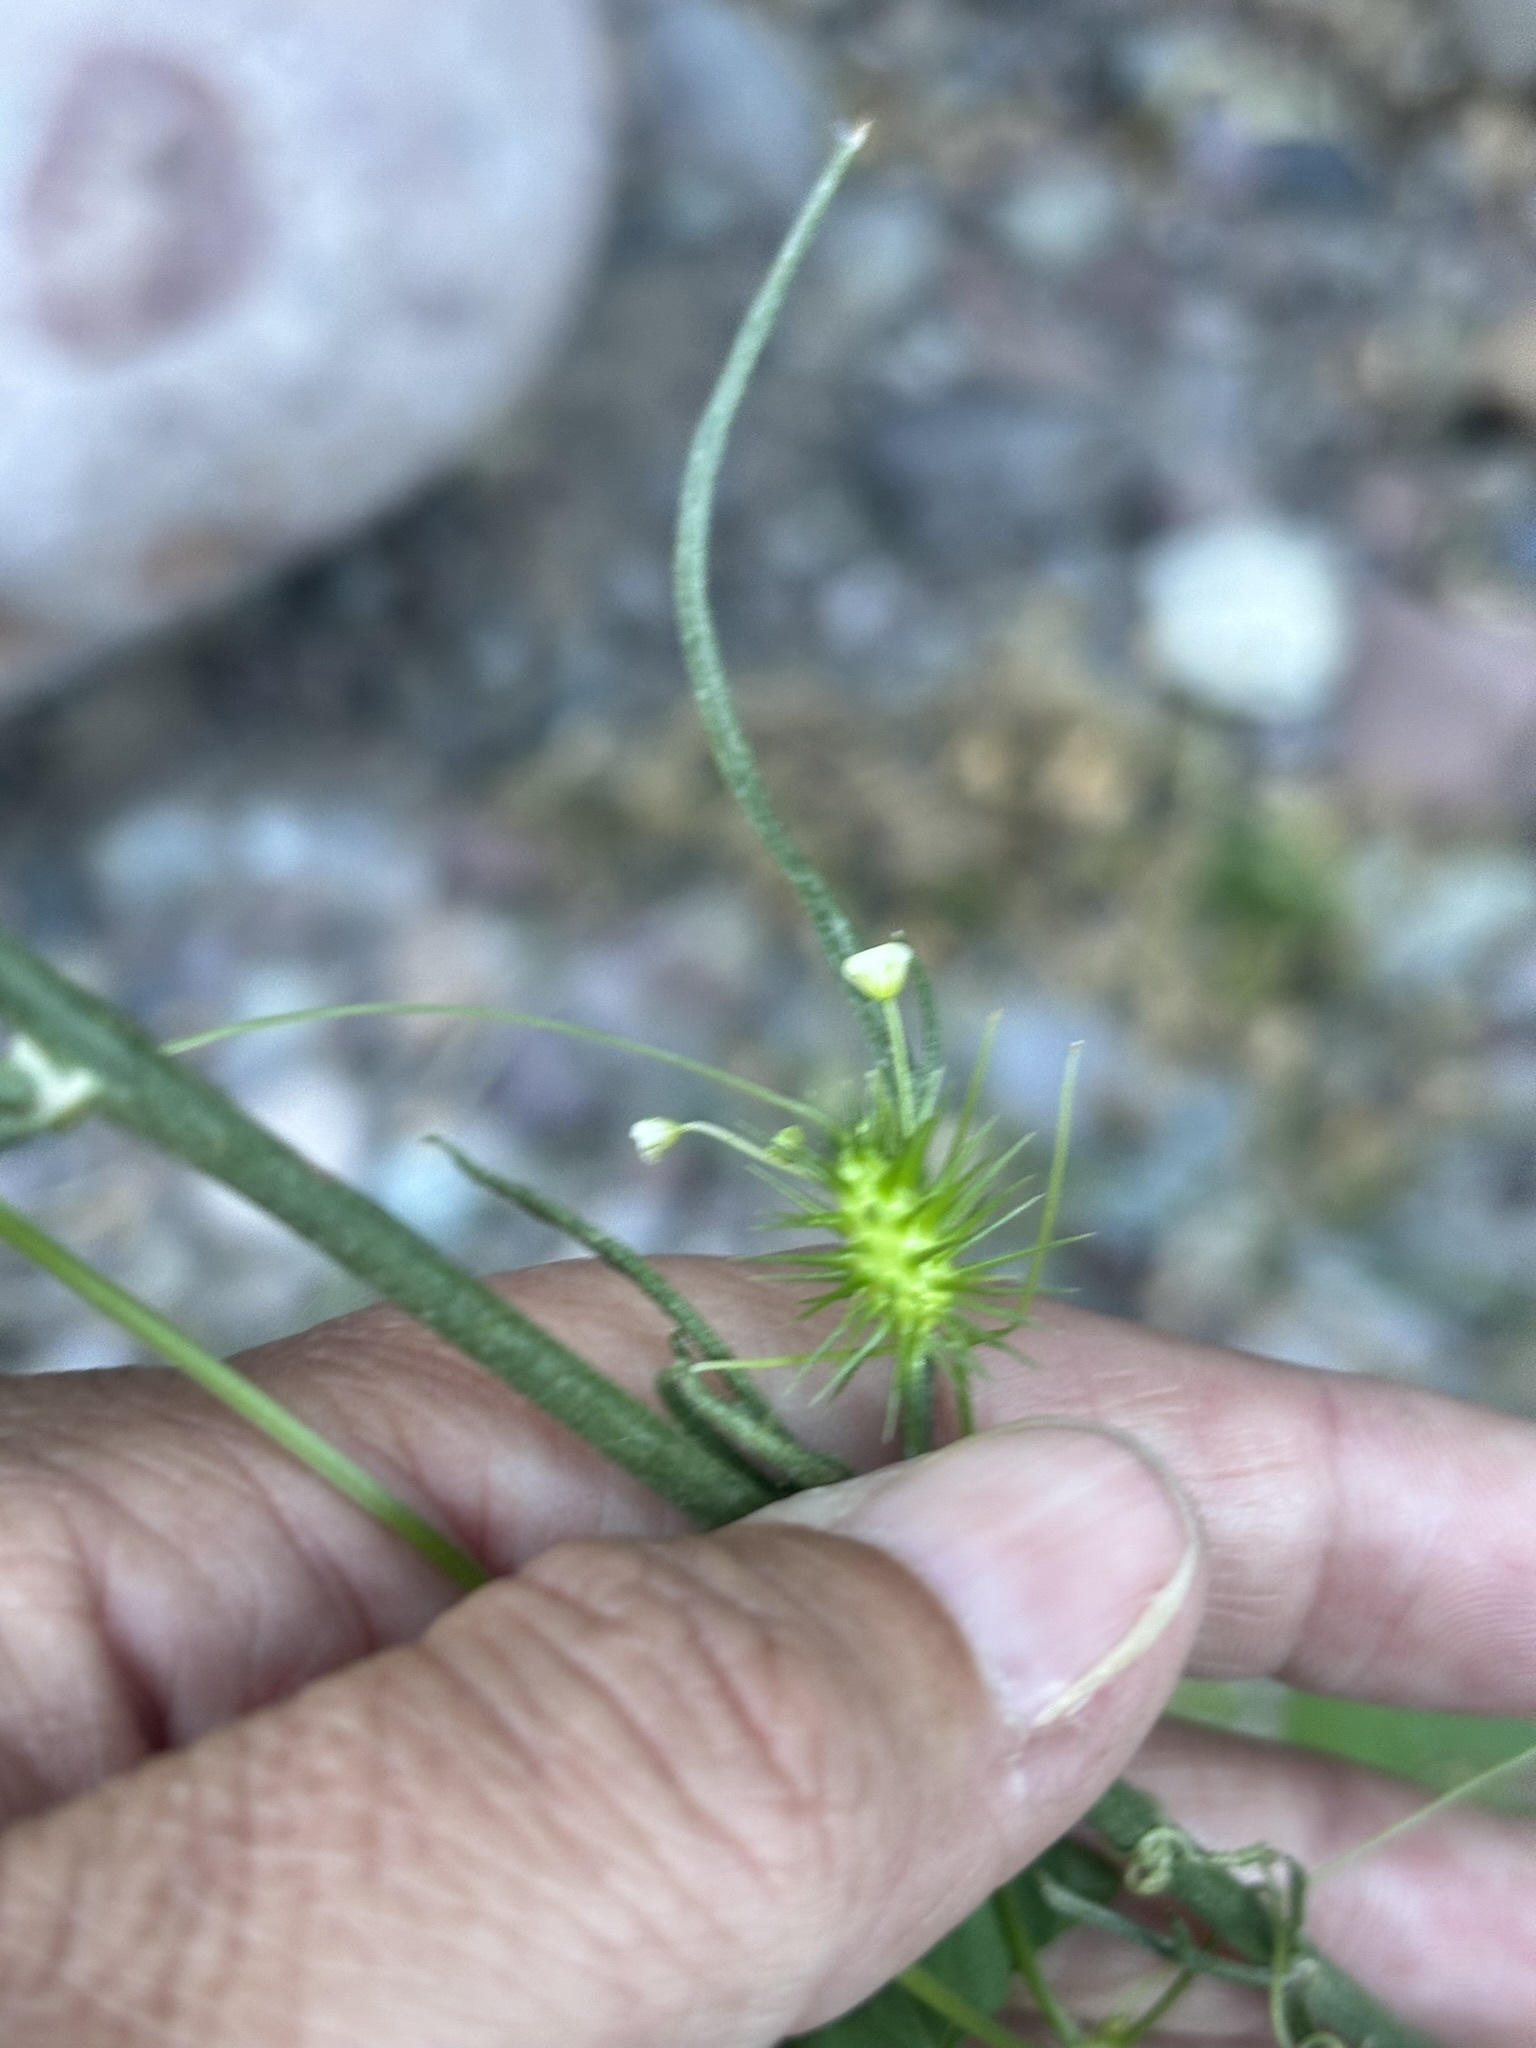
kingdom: Plantae
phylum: Tracheophyta
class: Magnoliopsida
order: Cucurbitales
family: Cucurbitaceae
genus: Echinopepon
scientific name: Echinopepon minimus
